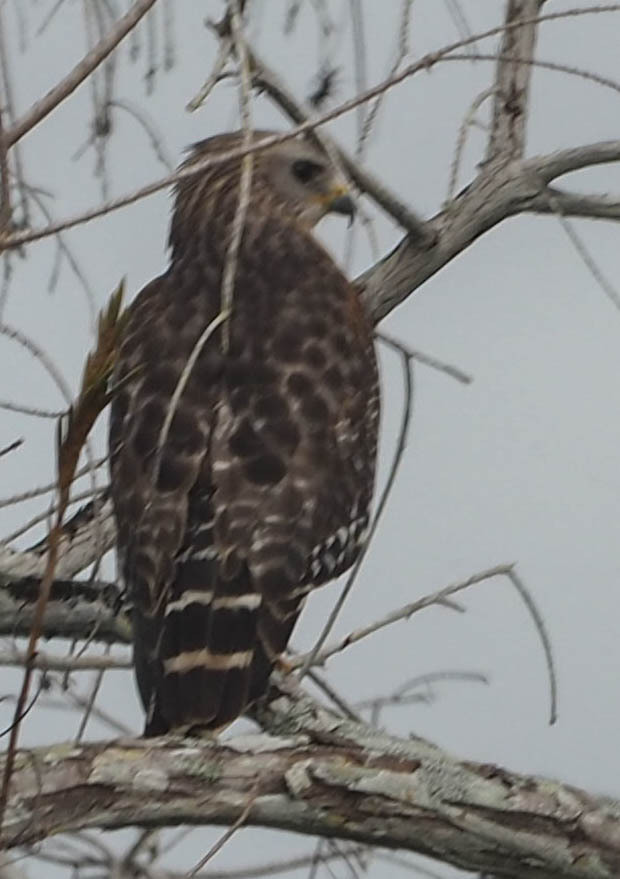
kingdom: Animalia
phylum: Chordata
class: Aves
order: Accipitriformes
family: Accipitridae
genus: Buteo
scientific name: Buteo lineatus
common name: Red-shouldered hawk
